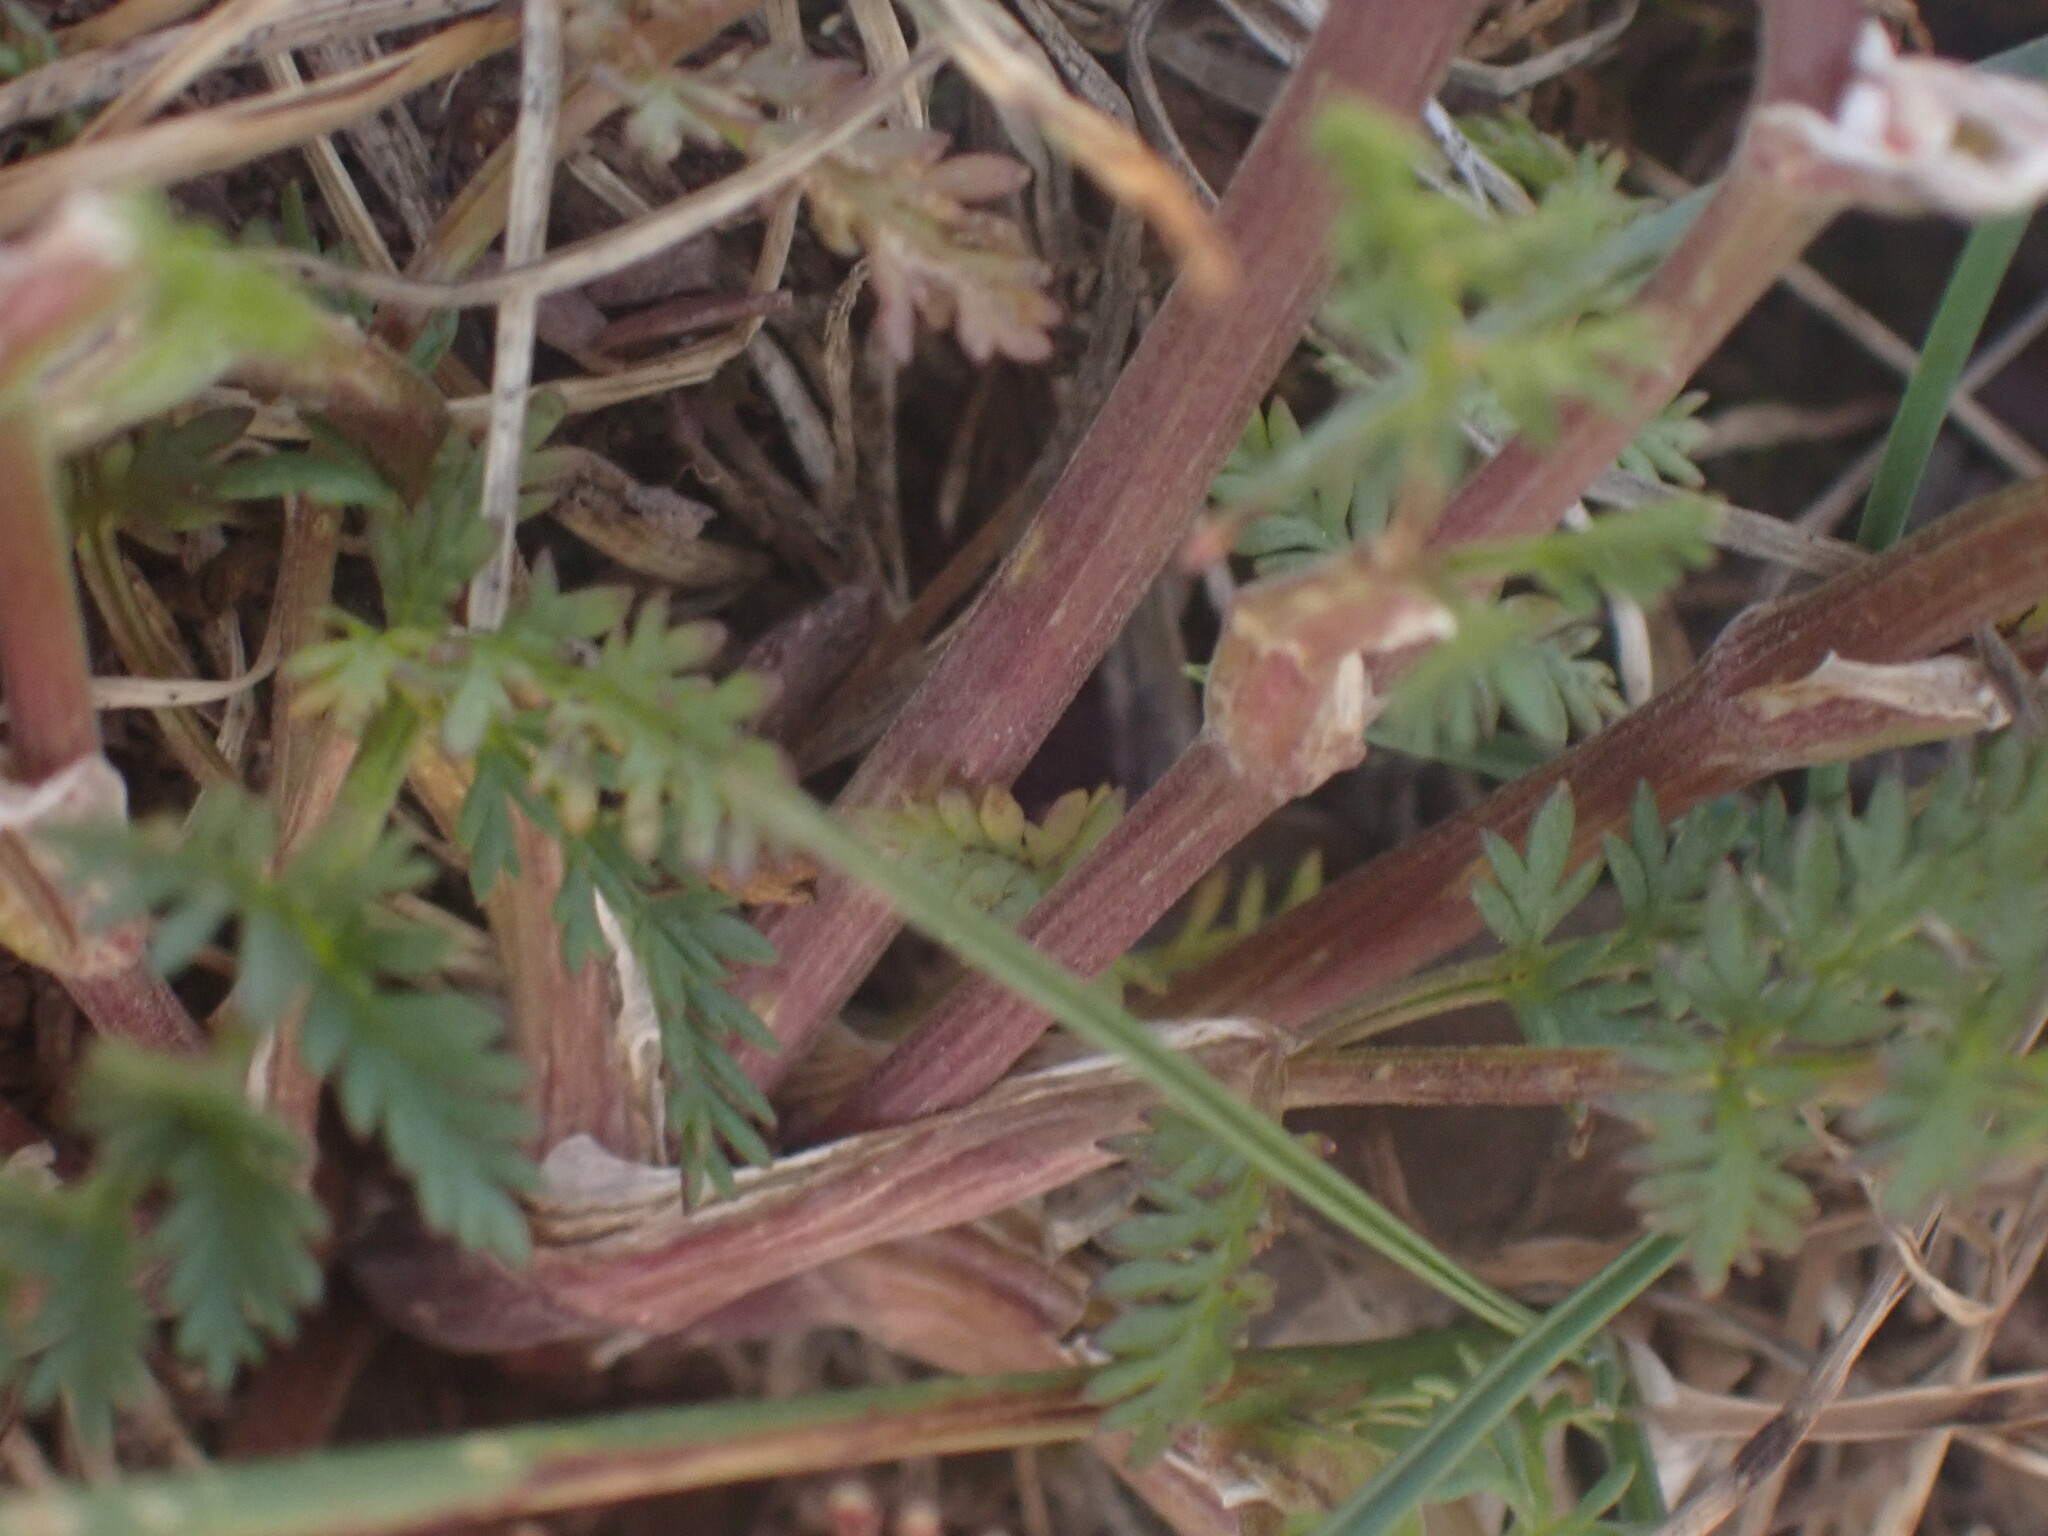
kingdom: Plantae
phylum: Tracheophyta
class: Magnoliopsida
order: Apiales
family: Apiaceae
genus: Lomatium
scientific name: Lomatium sandbergii
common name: Sandberg's biscuitroot
